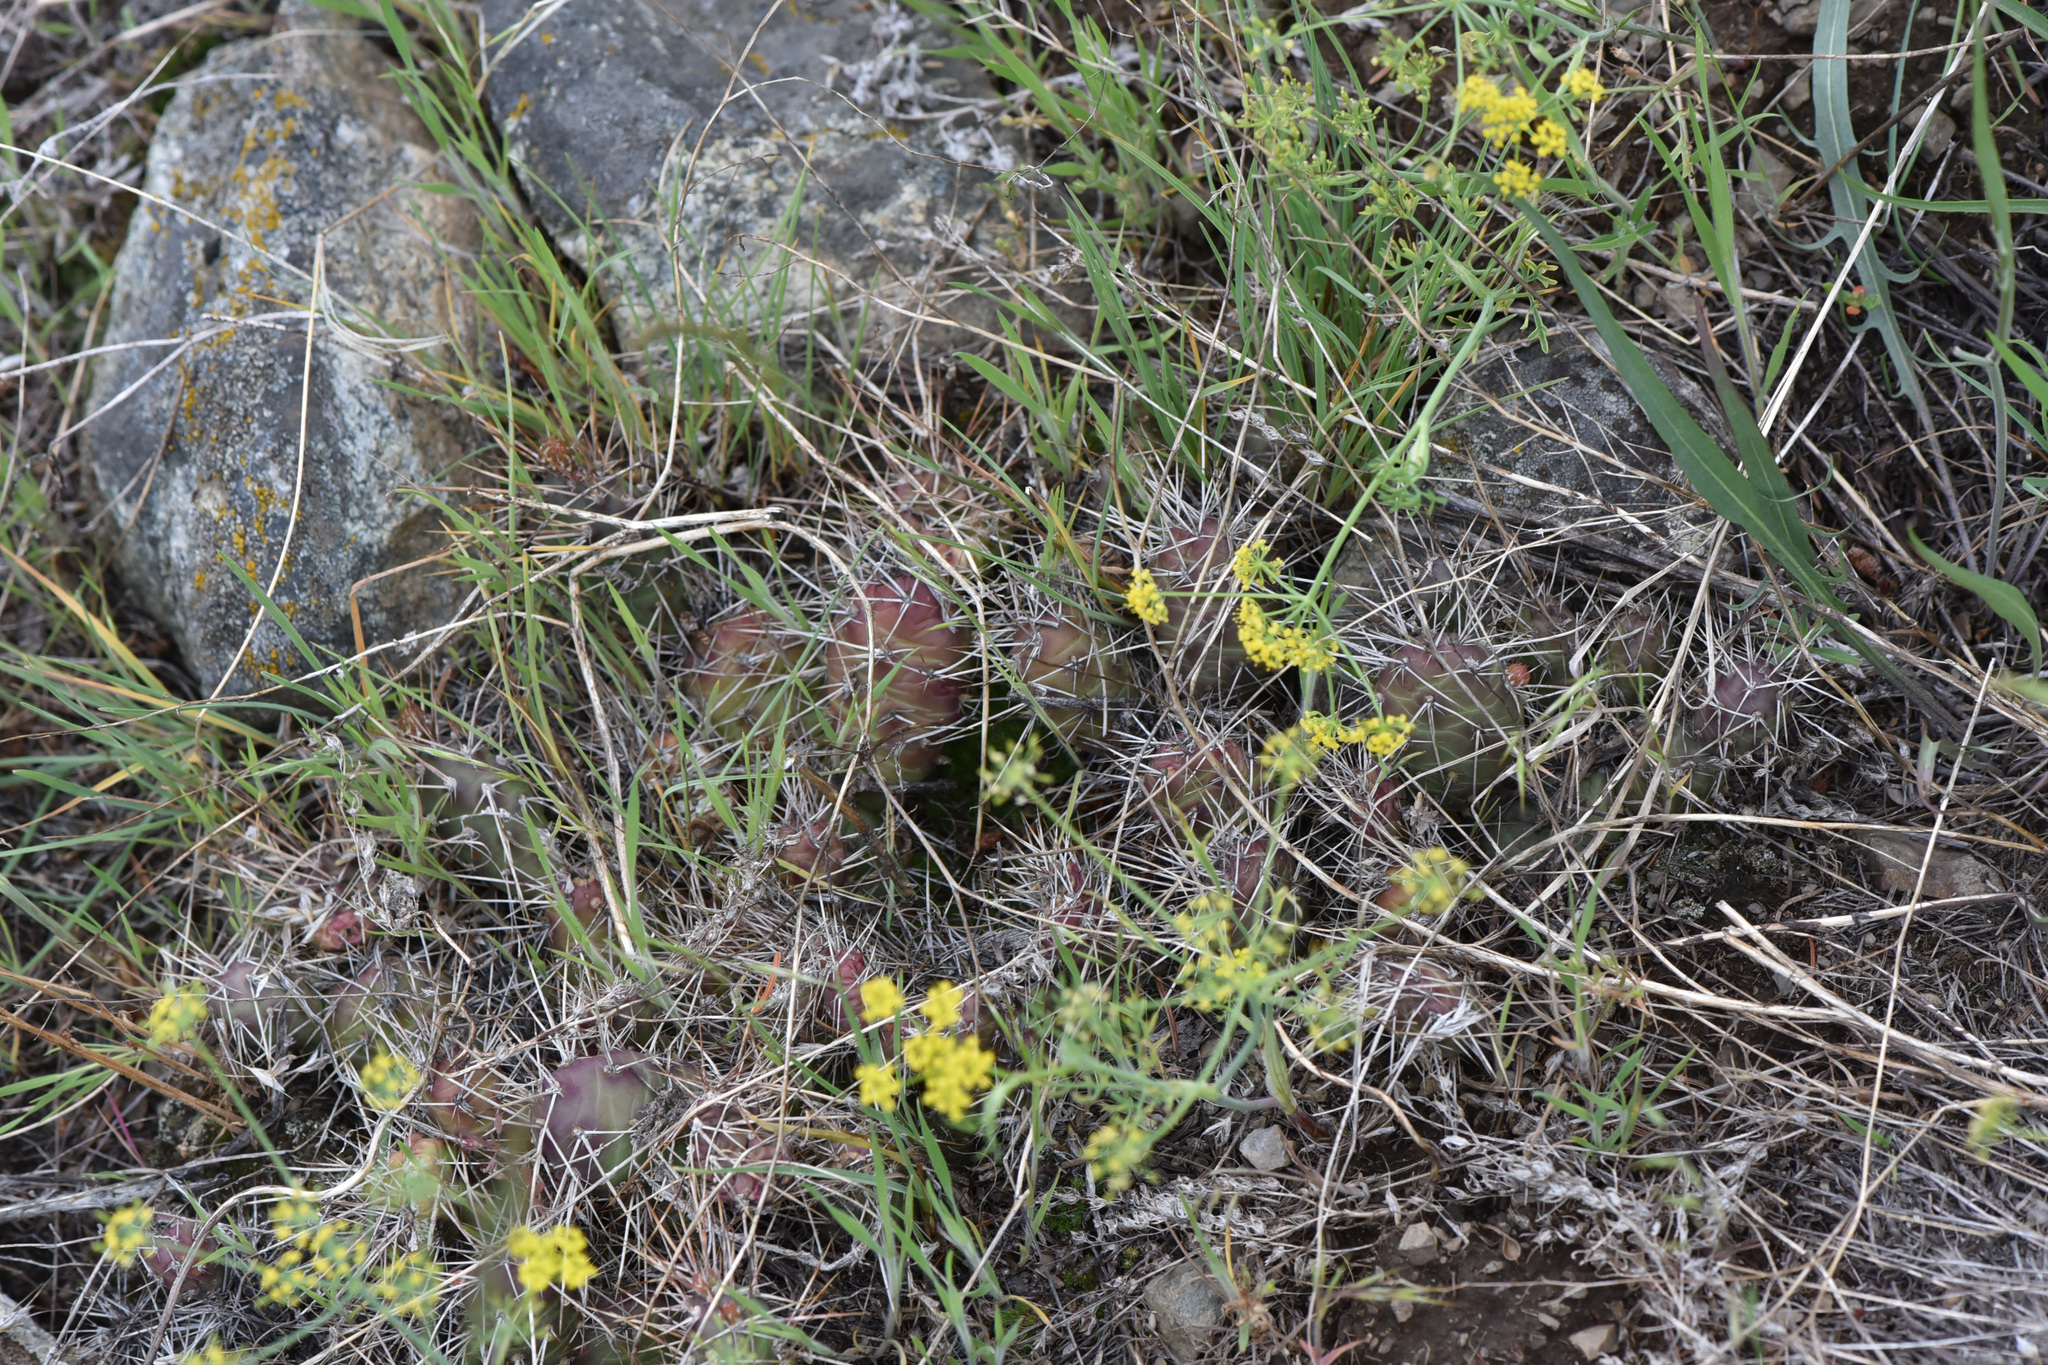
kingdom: Plantae
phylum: Tracheophyta
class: Magnoliopsida
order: Caryophyllales
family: Cactaceae
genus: Opuntia
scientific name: Opuntia fragilis
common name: Brittle cactus
